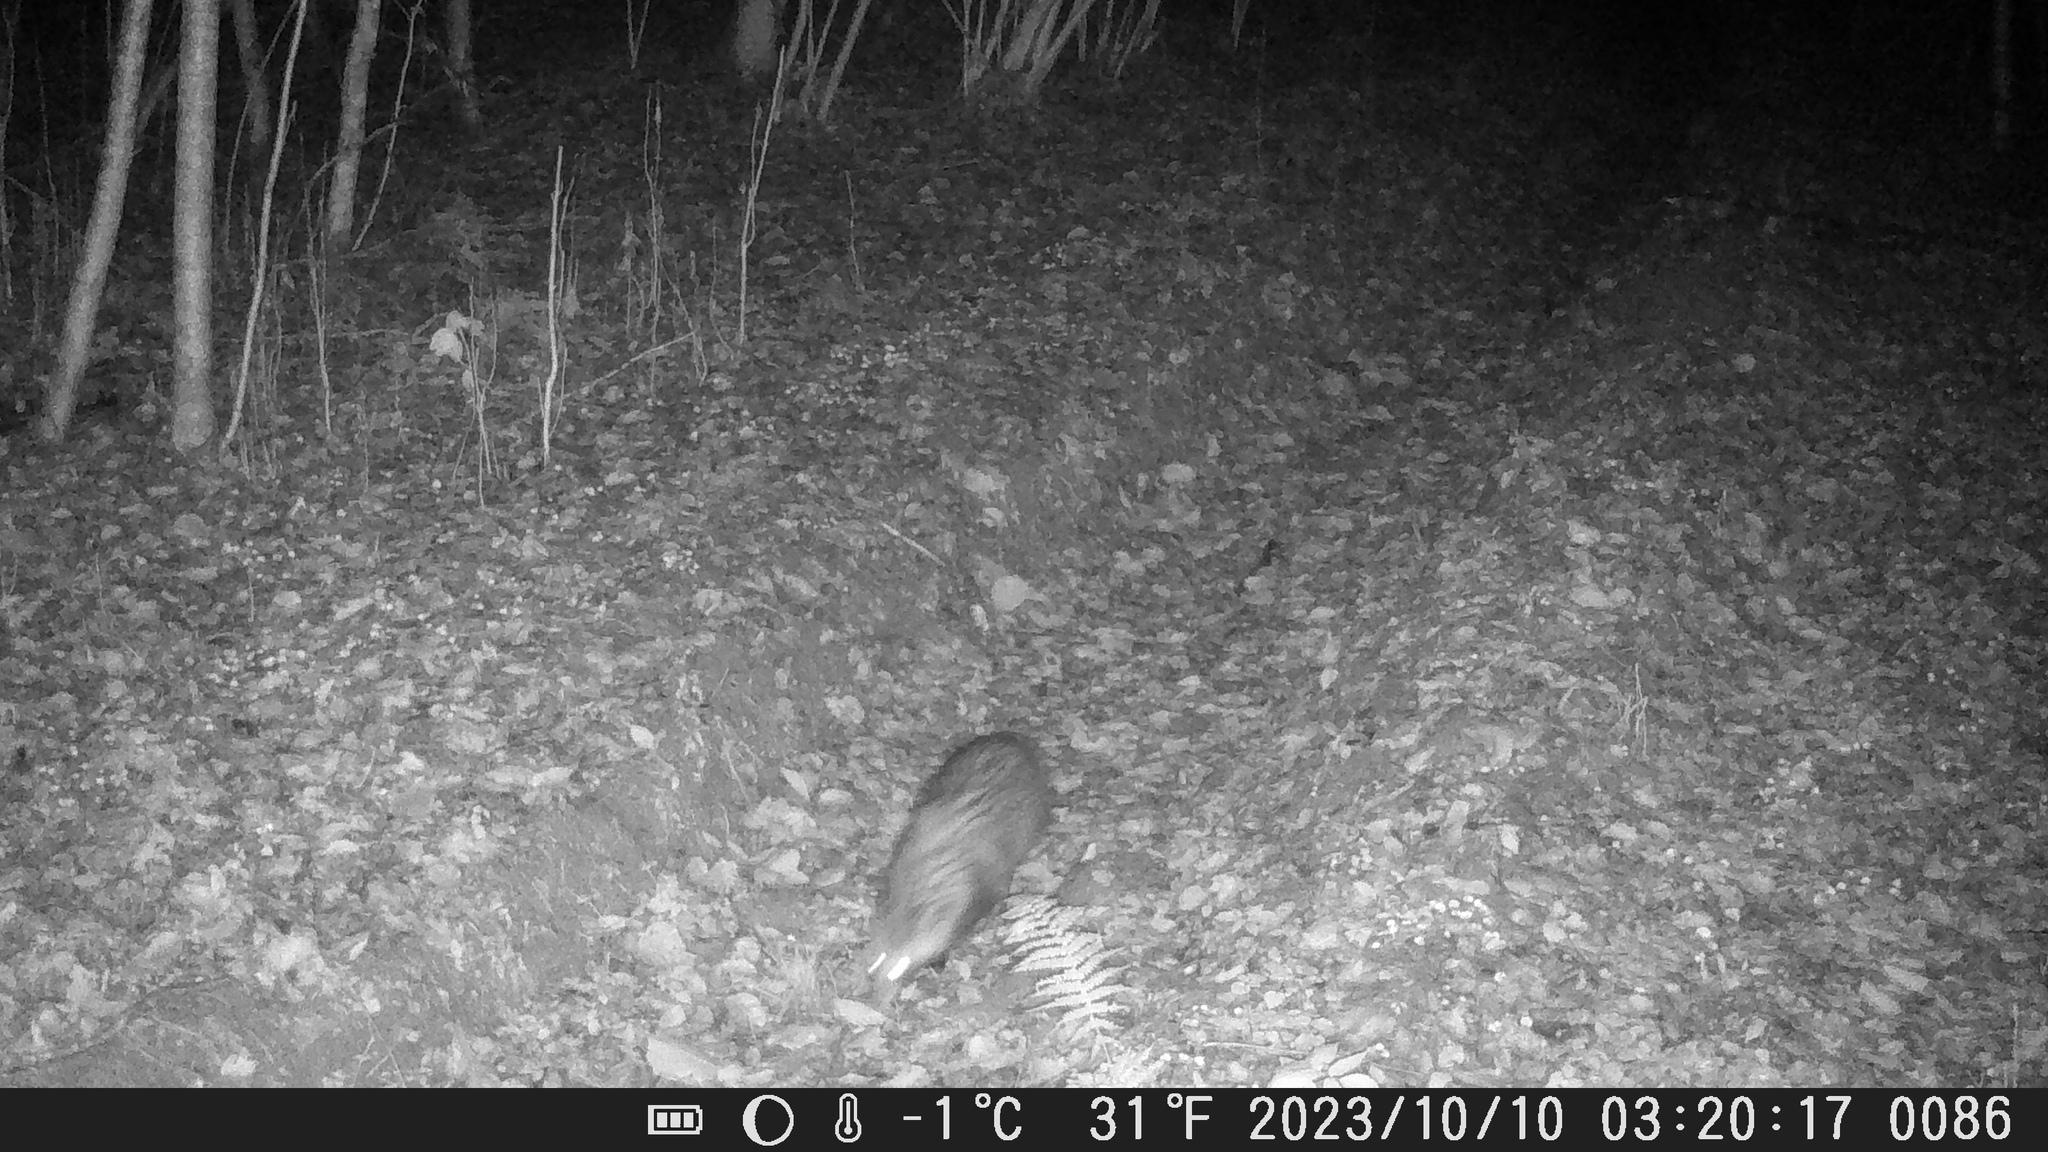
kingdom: Animalia
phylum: Chordata
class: Mammalia
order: Carnivora
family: Canidae
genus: Nyctereutes
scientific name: Nyctereutes procyonoides
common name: Raccoon dog
